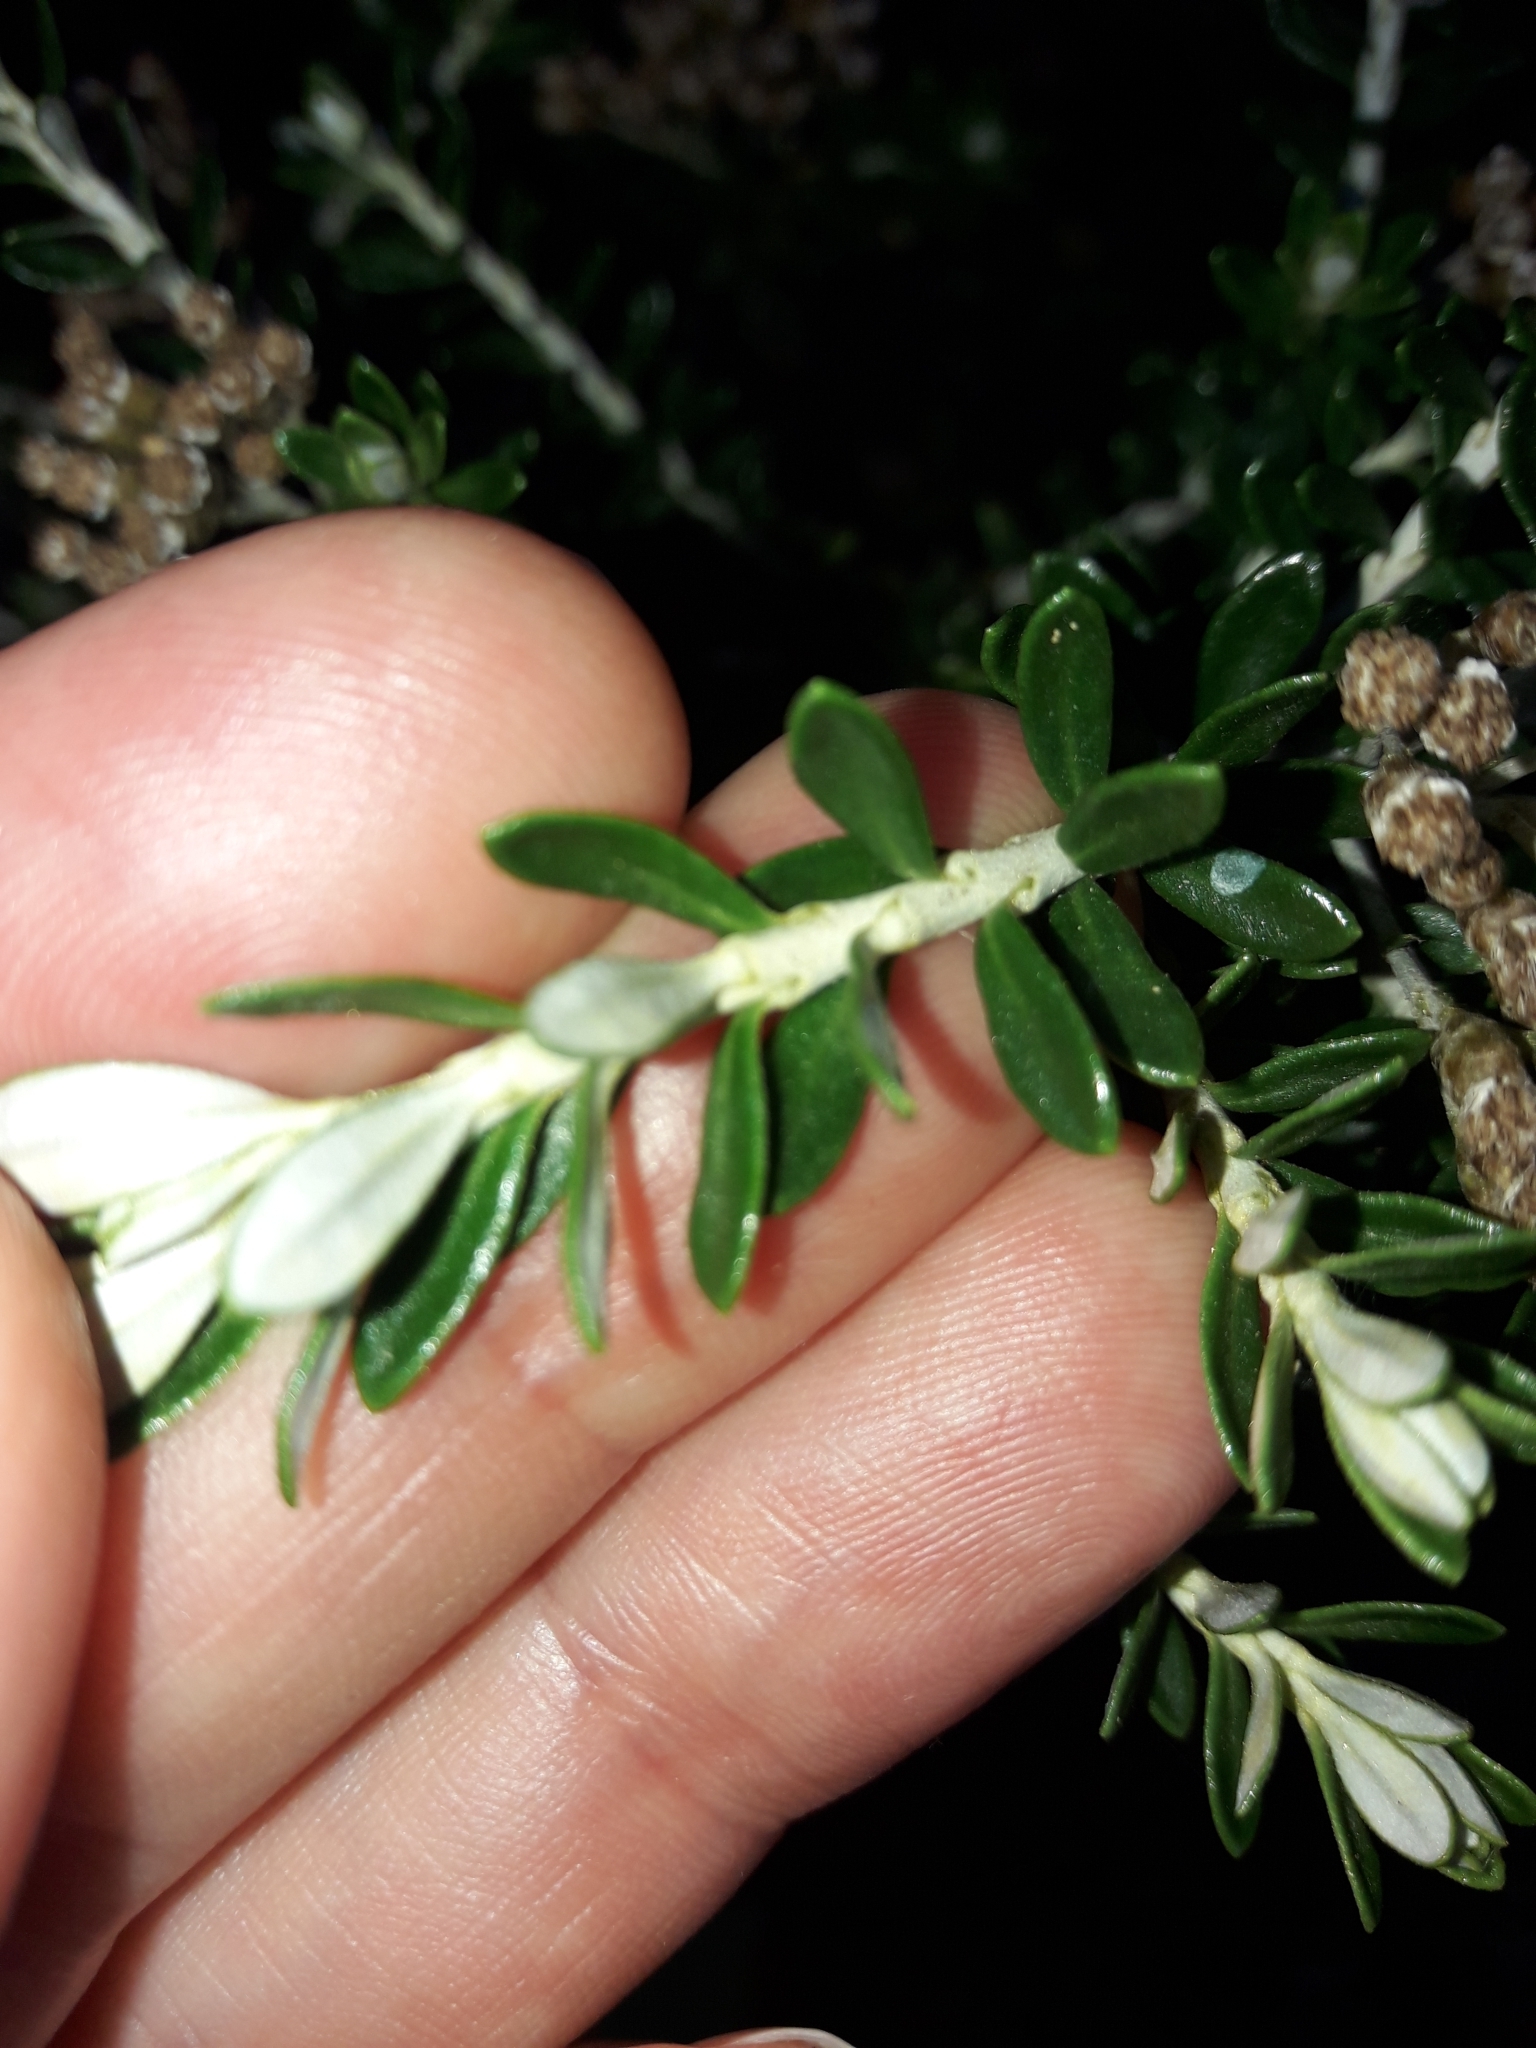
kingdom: Plantae
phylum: Tracheophyta
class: Magnoliopsida
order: Asterales
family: Asteraceae
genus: Ozothamnus
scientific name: Ozothamnus leptophyllus
